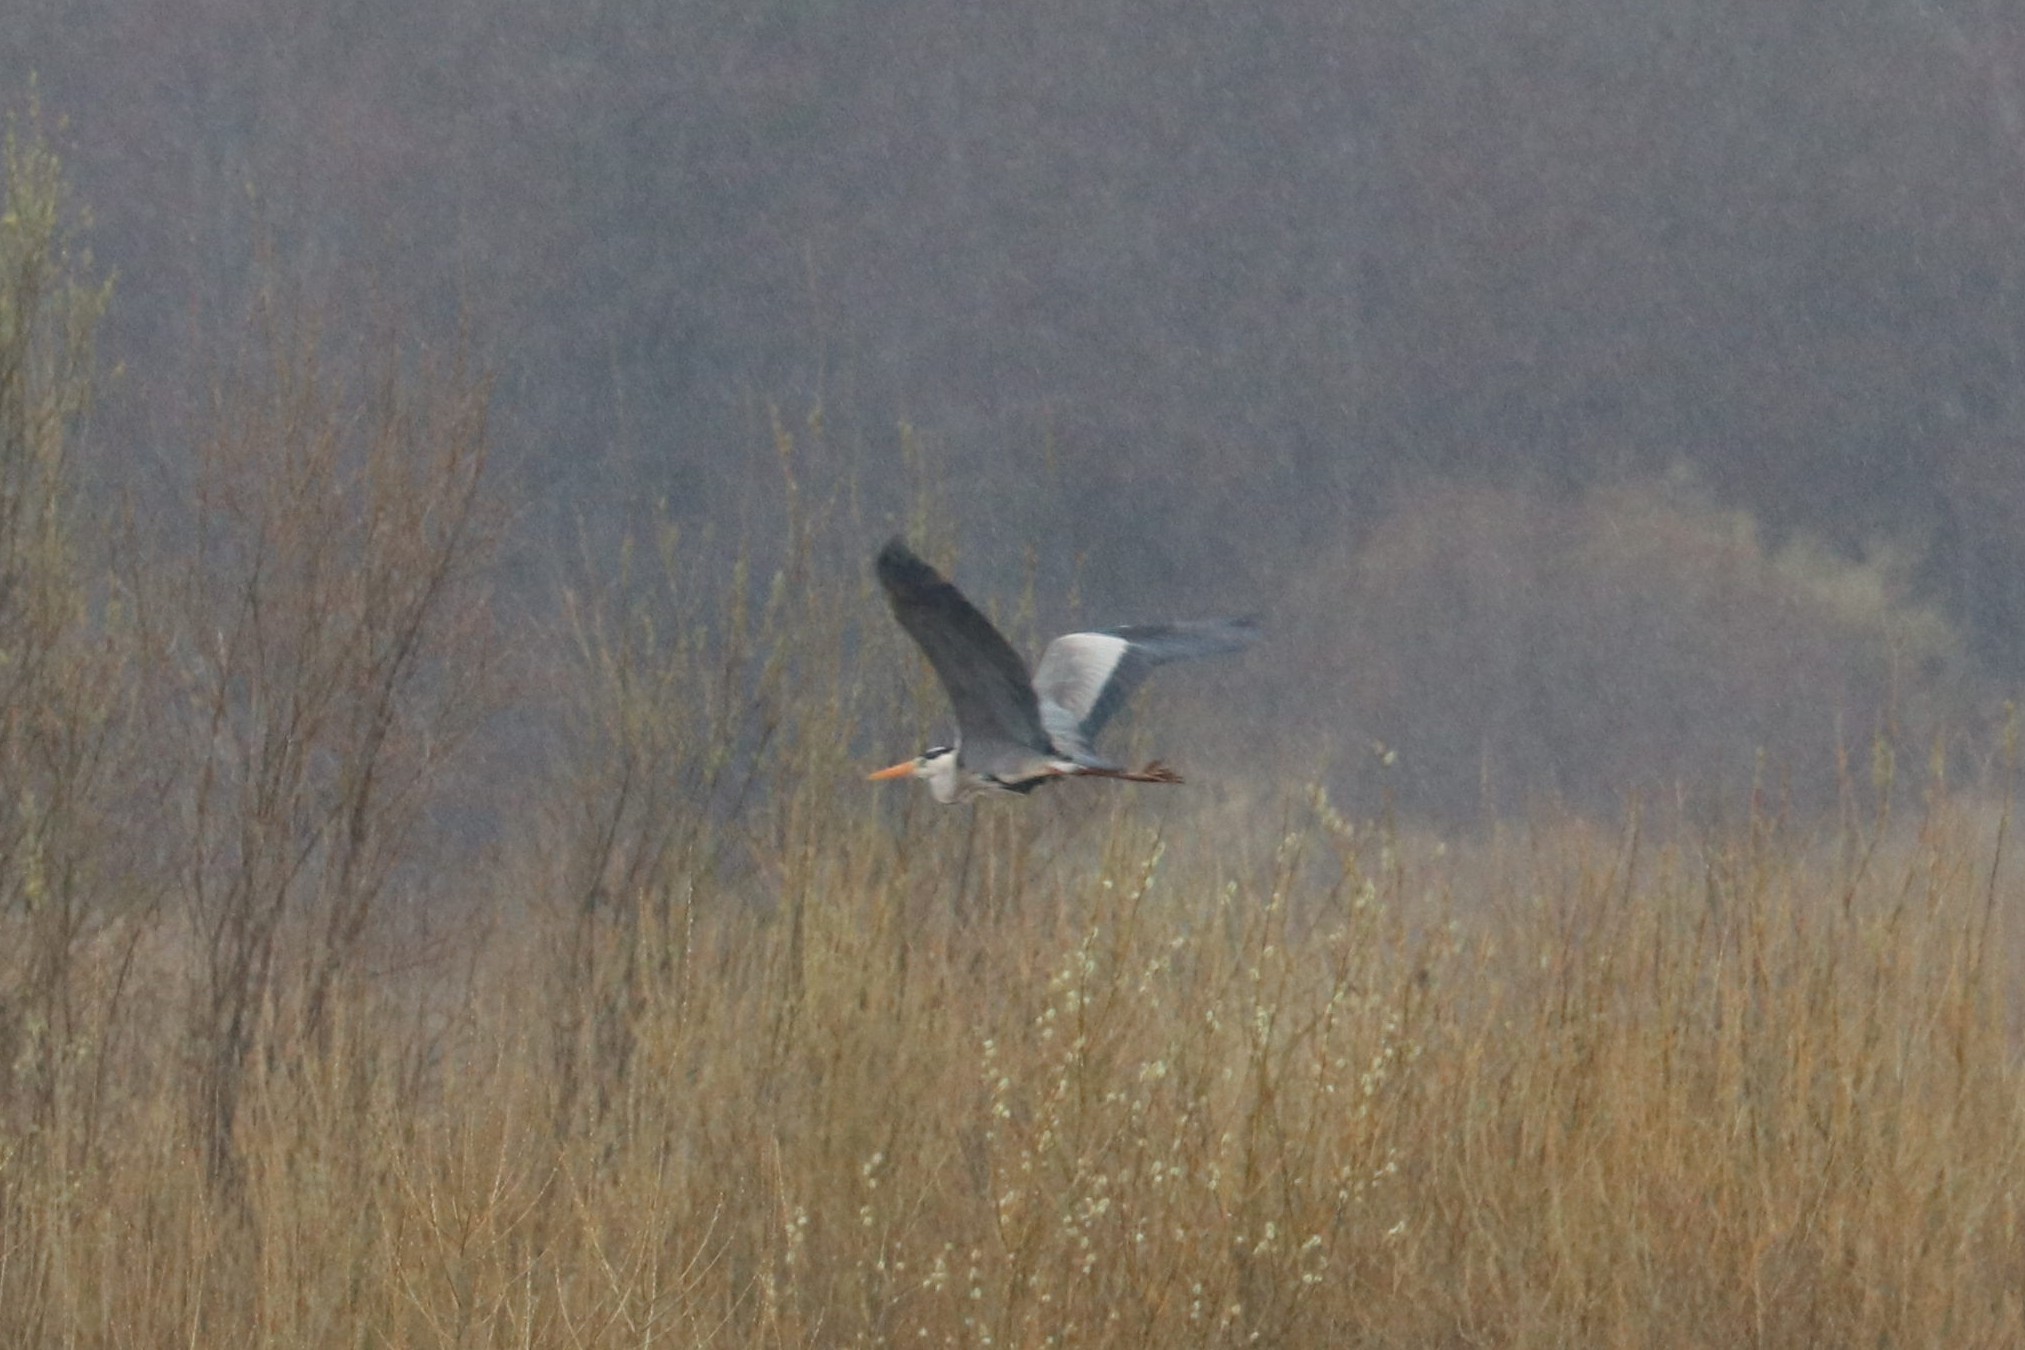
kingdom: Animalia
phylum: Chordata
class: Aves
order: Pelecaniformes
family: Ardeidae
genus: Ardea
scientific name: Ardea cinerea
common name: Grey heron
